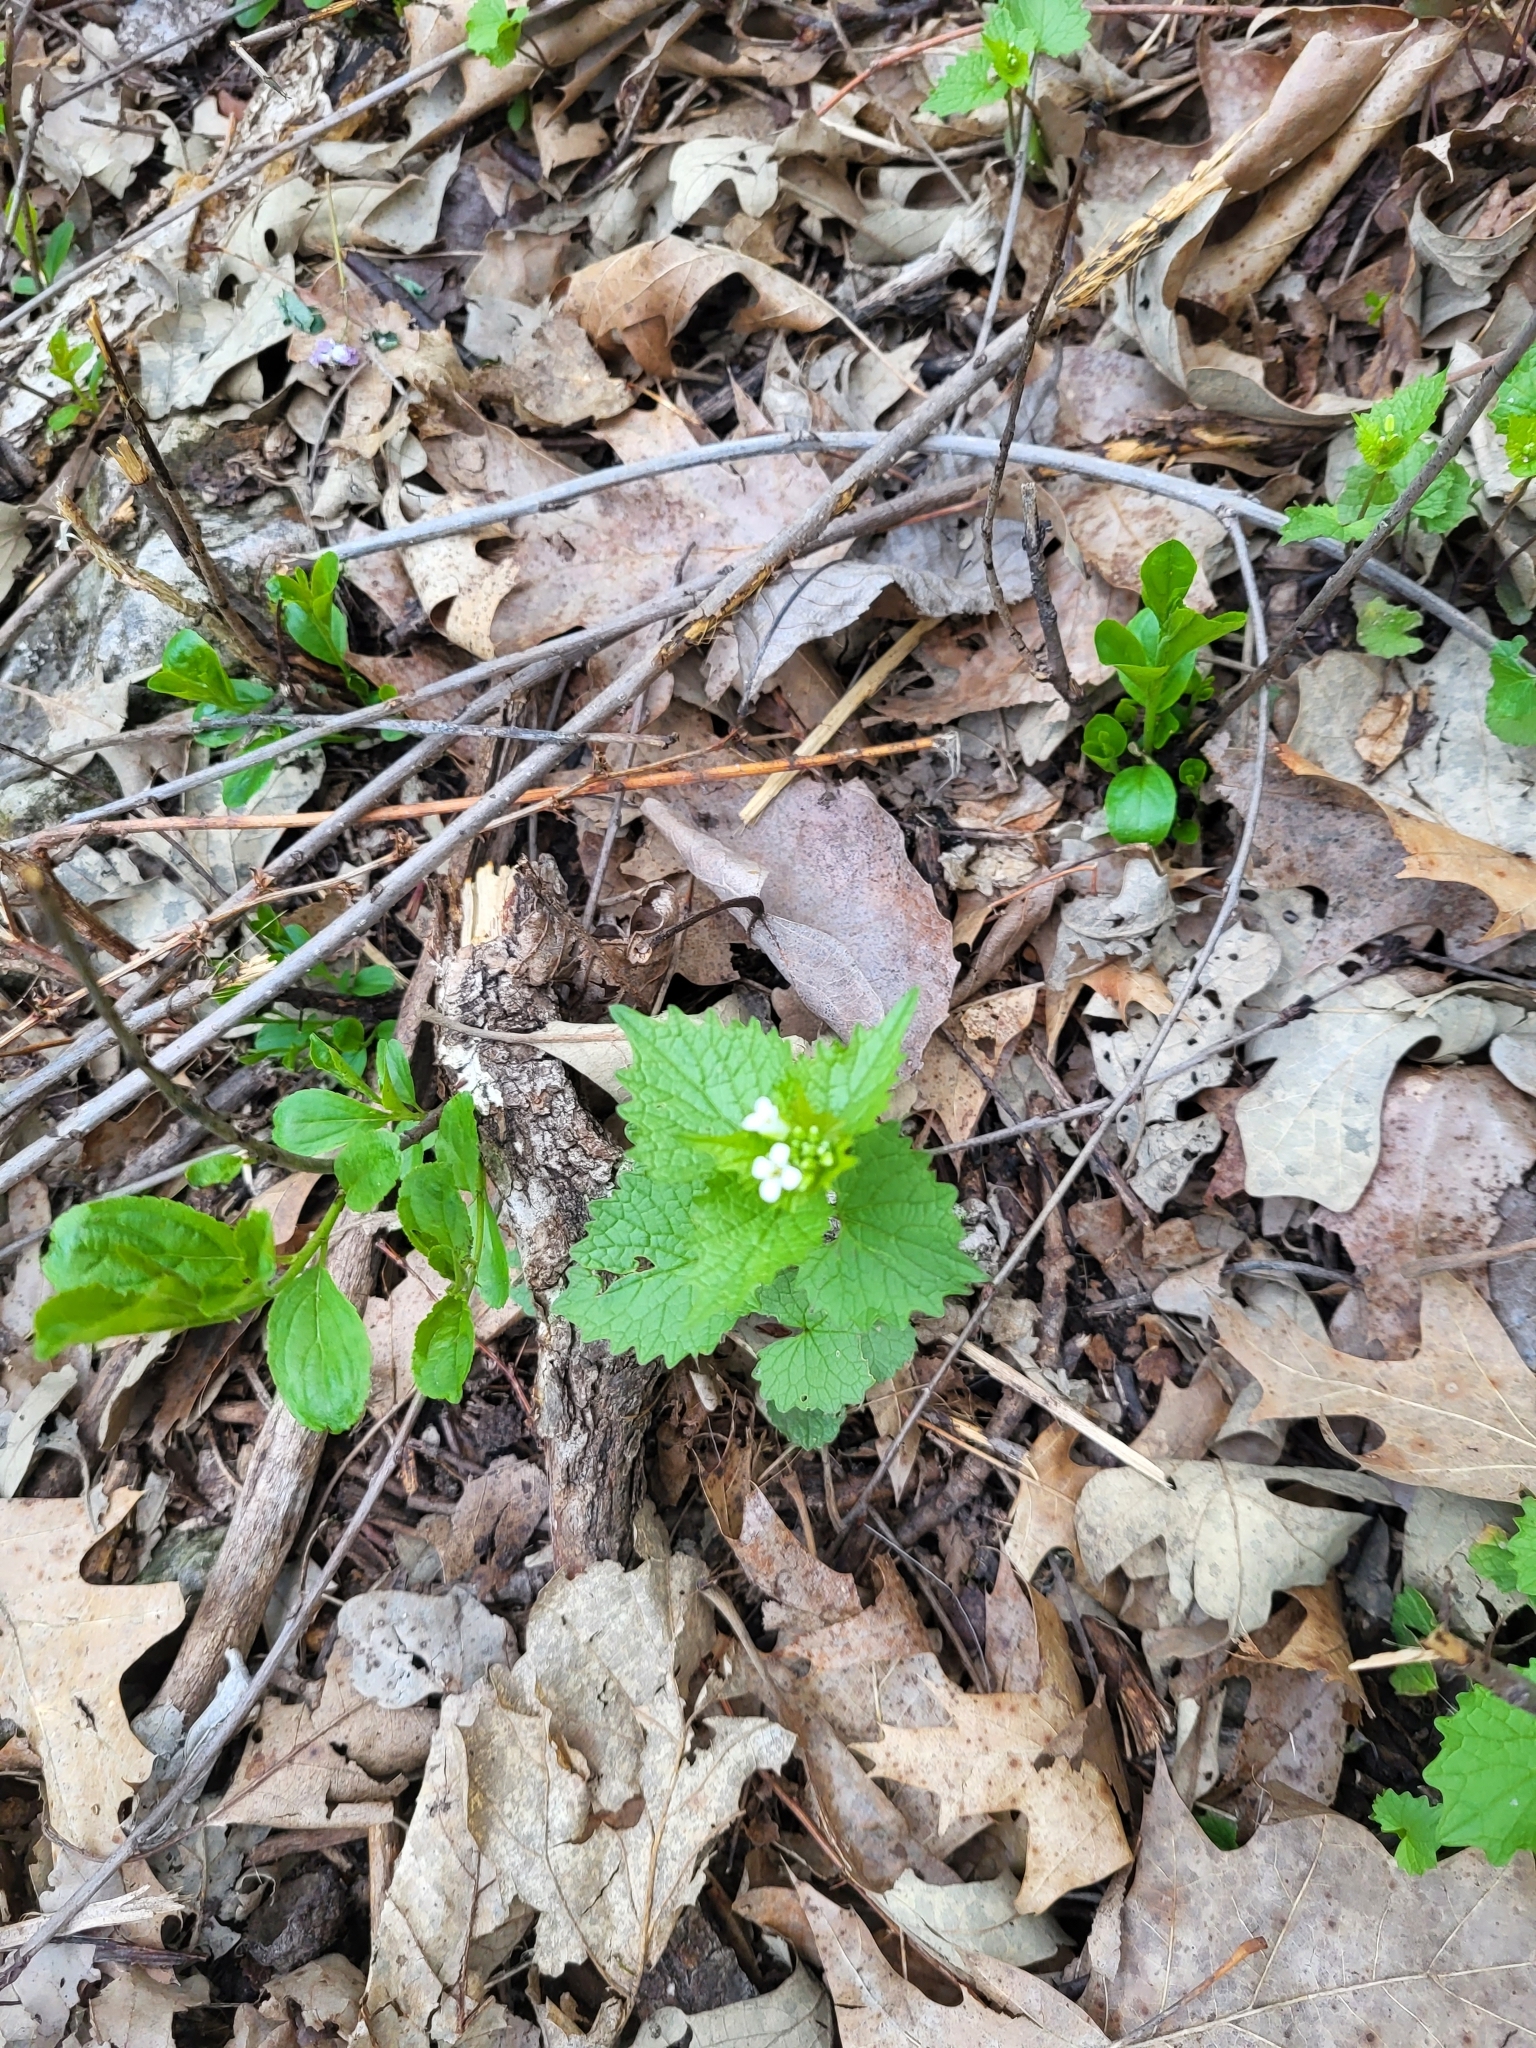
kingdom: Plantae
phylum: Tracheophyta
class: Magnoliopsida
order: Brassicales
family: Brassicaceae
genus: Alliaria
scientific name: Alliaria petiolata
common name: Garlic mustard
